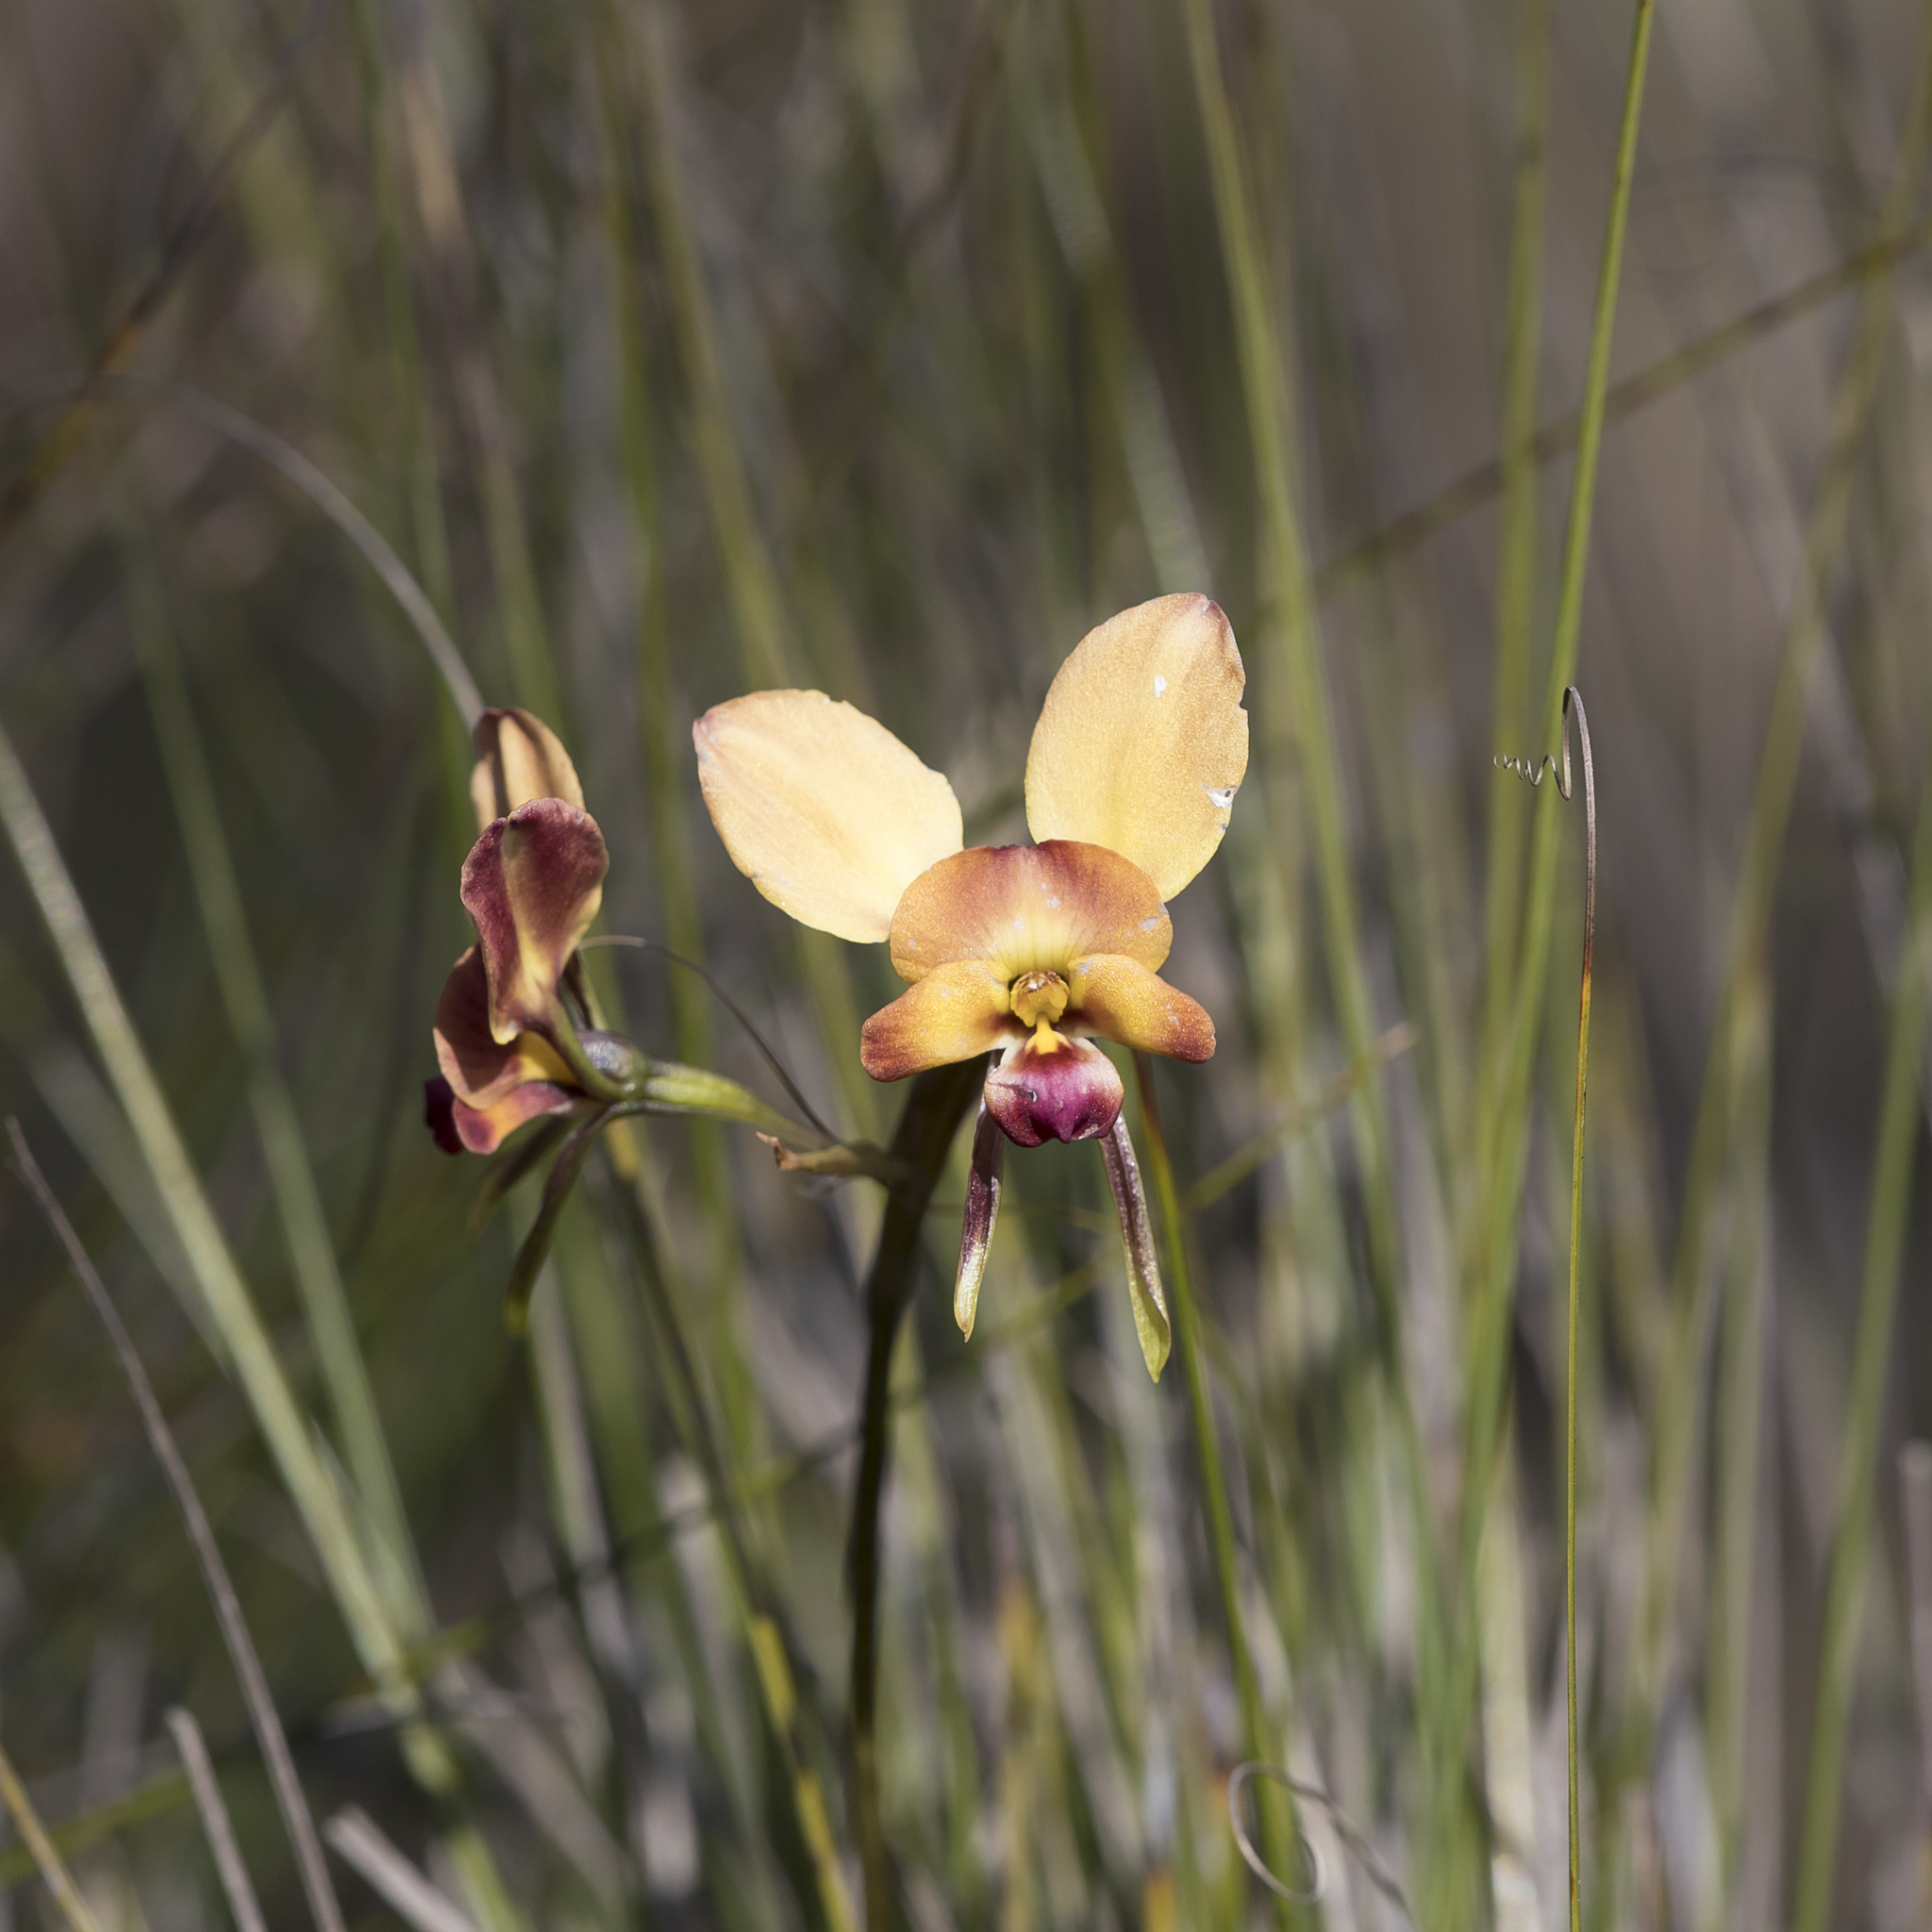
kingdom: Plantae
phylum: Tracheophyta
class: Liliopsida
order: Asparagales
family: Orchidaceae
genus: Diuris
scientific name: Diuris orientis
